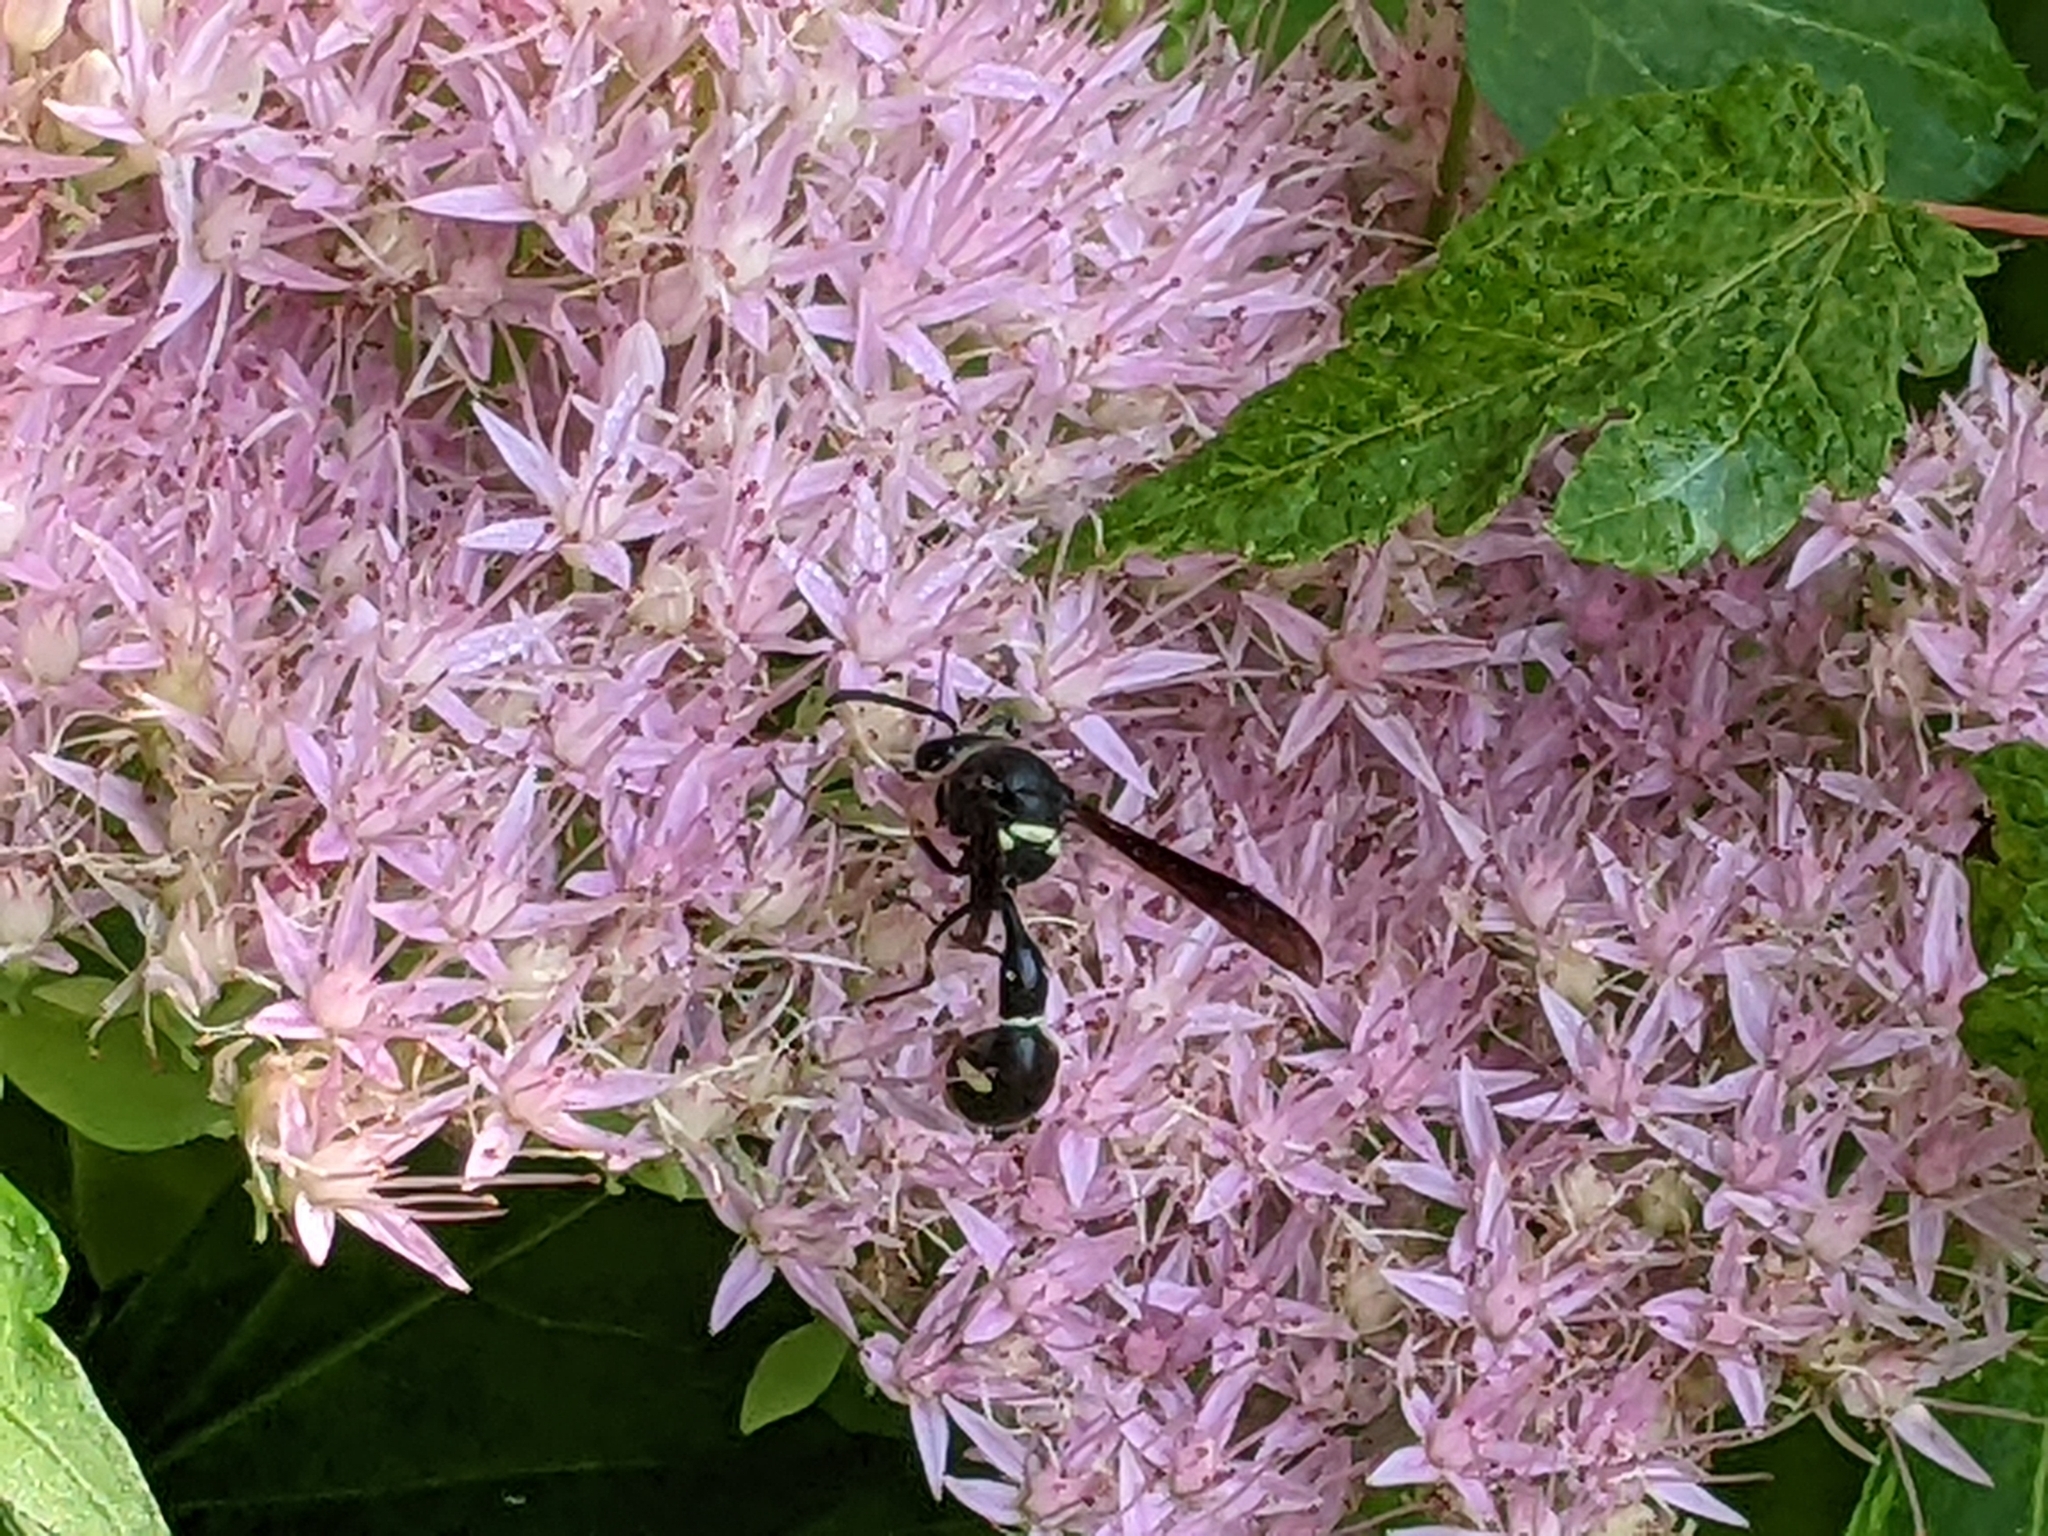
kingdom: Animalia
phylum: Arthropoda
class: Insecta
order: Hymenoptera
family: Vespidae
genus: Eumenes
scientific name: Eumenes fraternus
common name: Fraternal potter wasp
